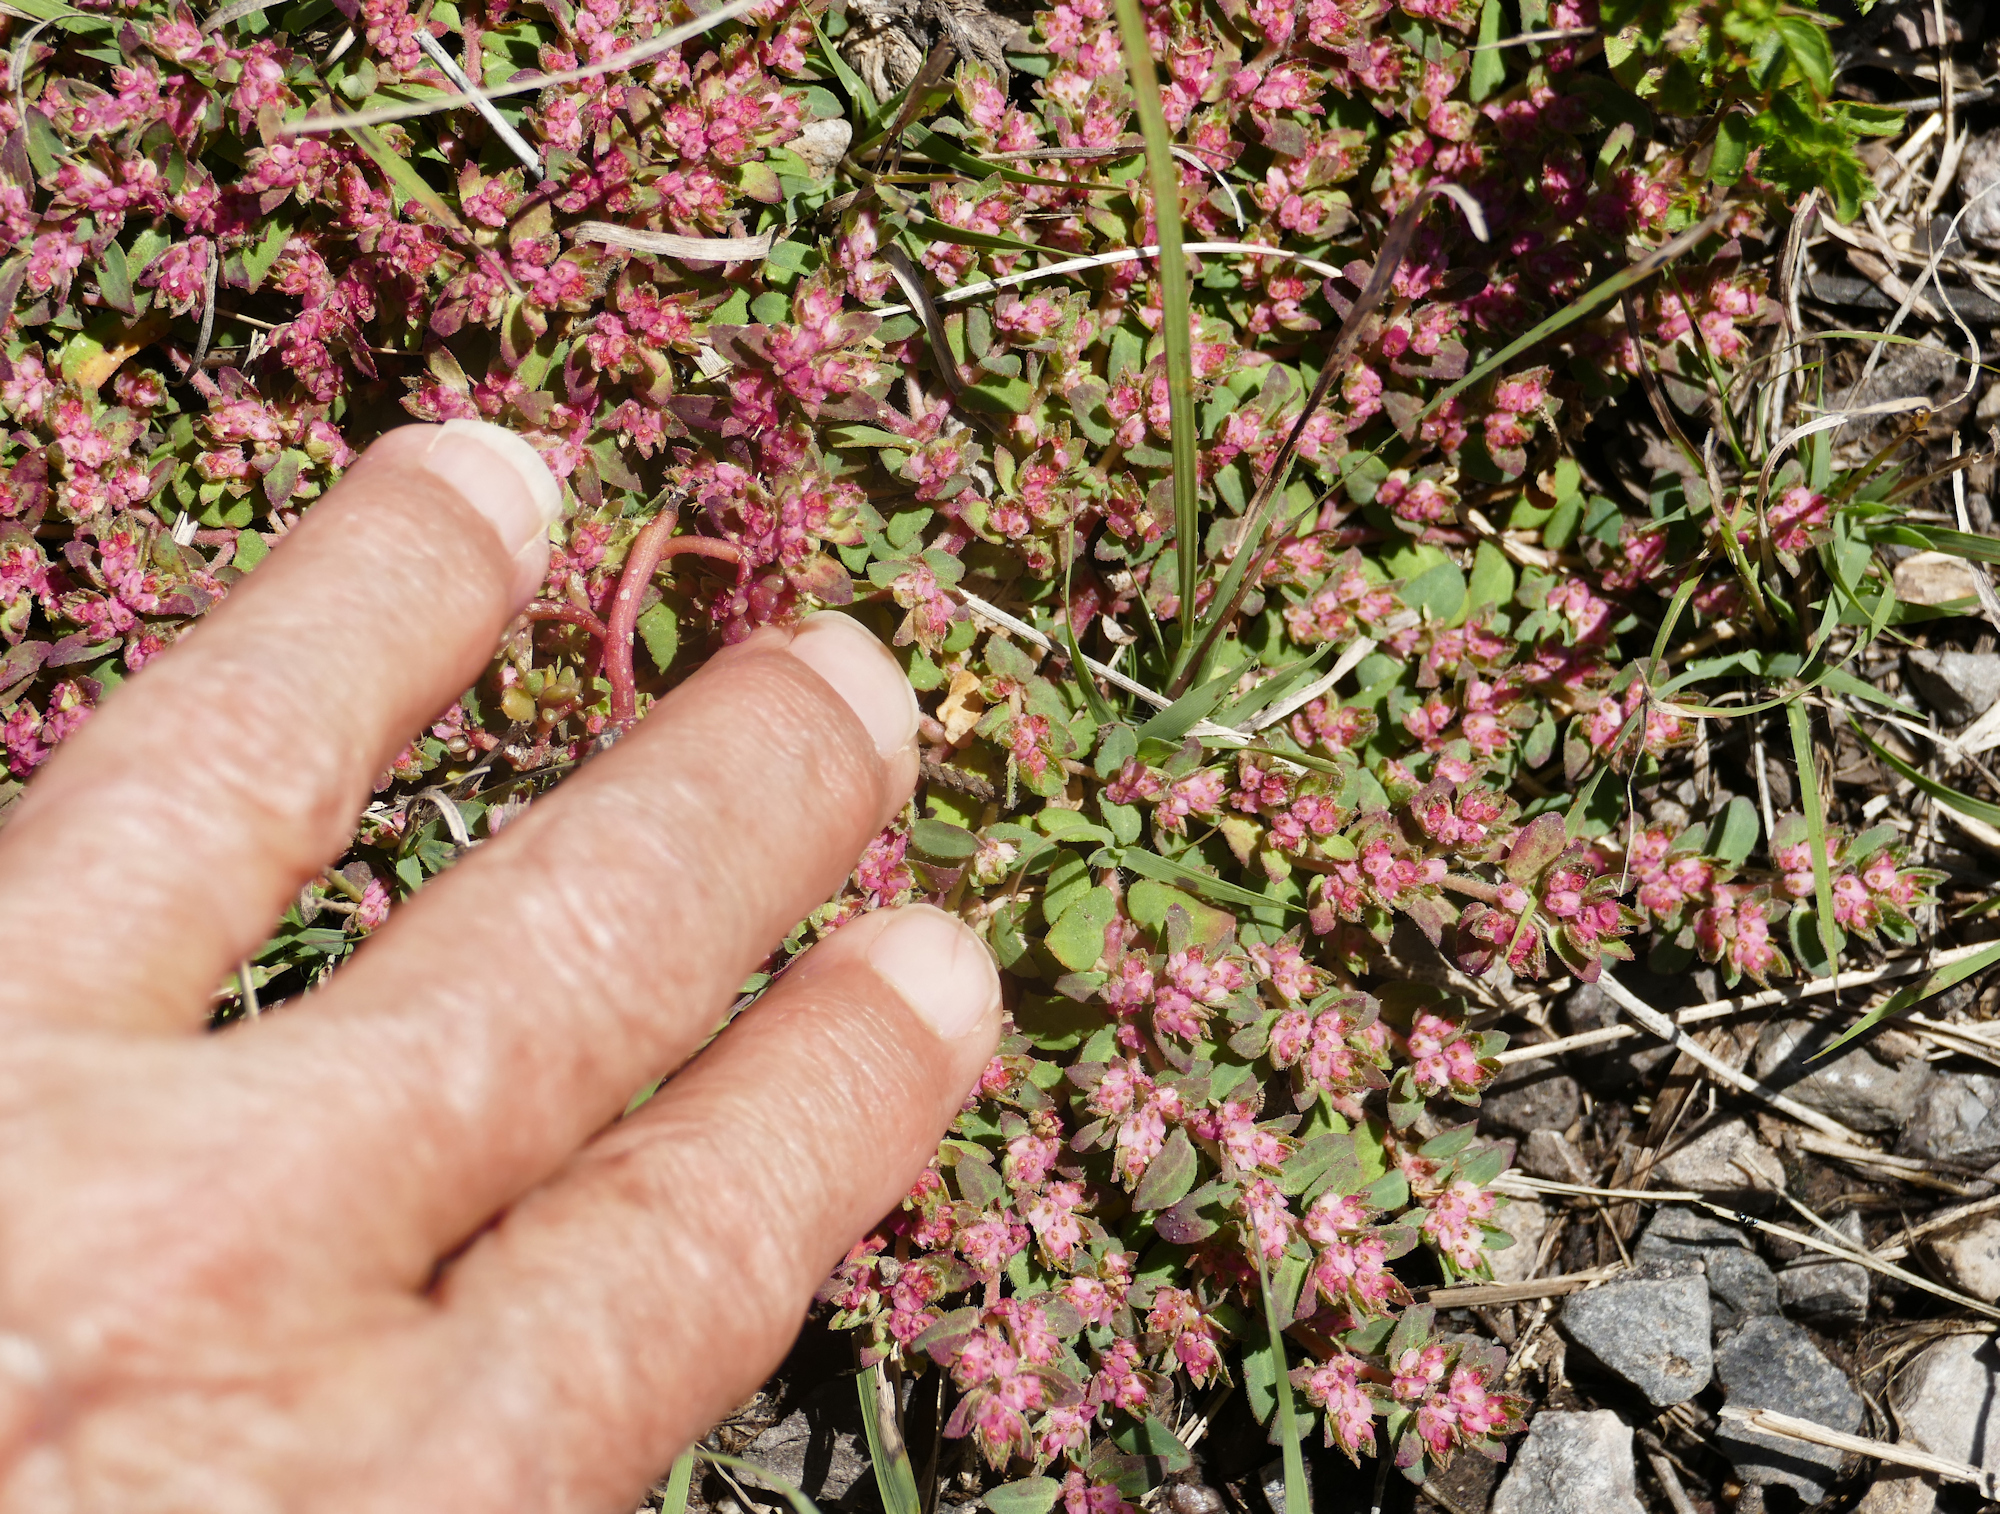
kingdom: Plantae
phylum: Tracheophyta
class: Magnoliopsida
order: Malpighiales
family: Euphorbiaceae
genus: Euphorbia
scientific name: Euphorbia indivisa
